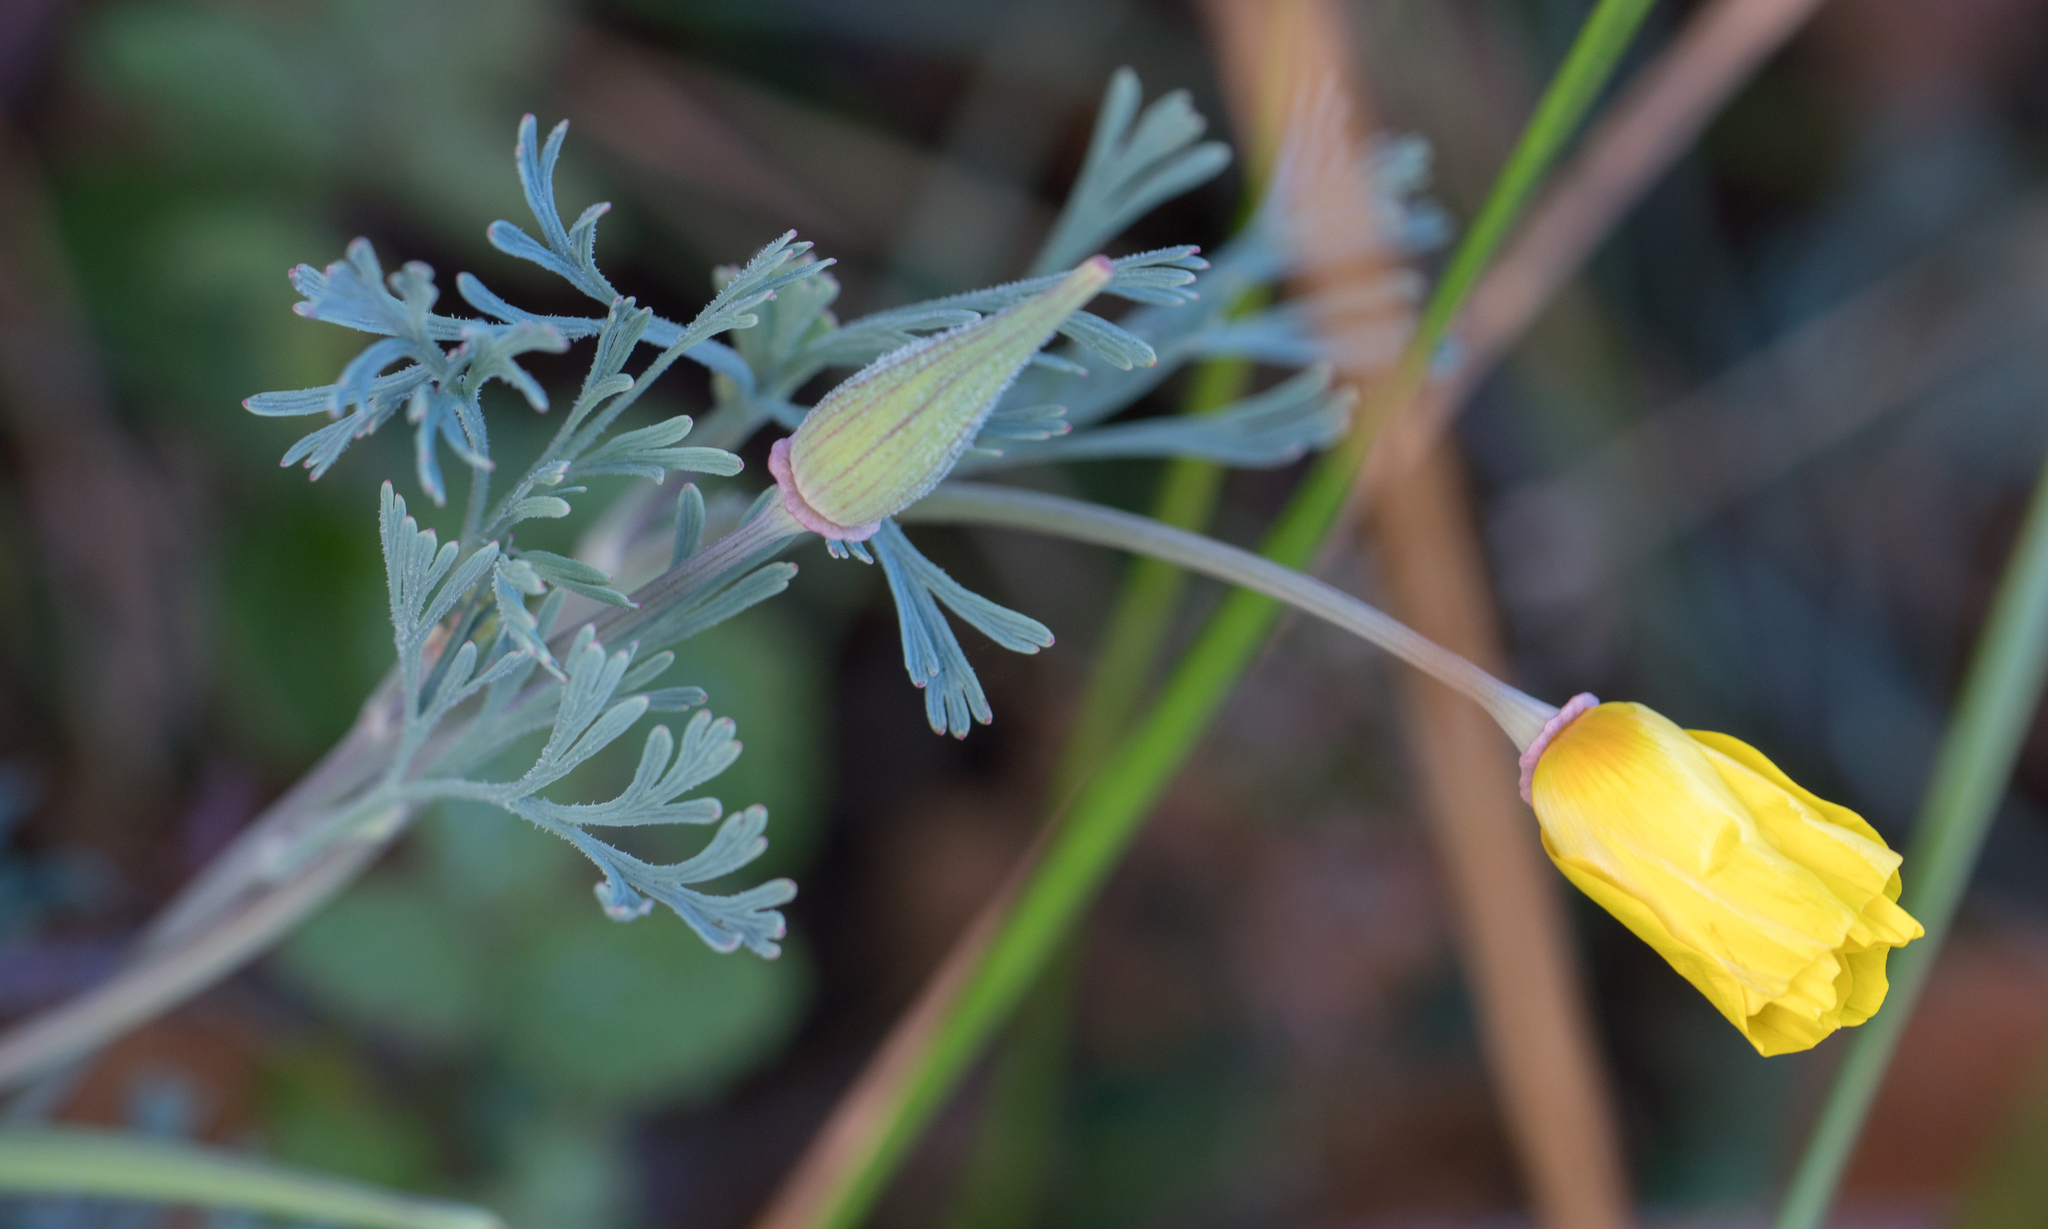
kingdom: Plantae
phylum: Tracheophyta
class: Magnoliopsida
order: Ranunculales
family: Papaveraceae
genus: Eschscholzia
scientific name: Eschscholzia californica
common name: California poppy
